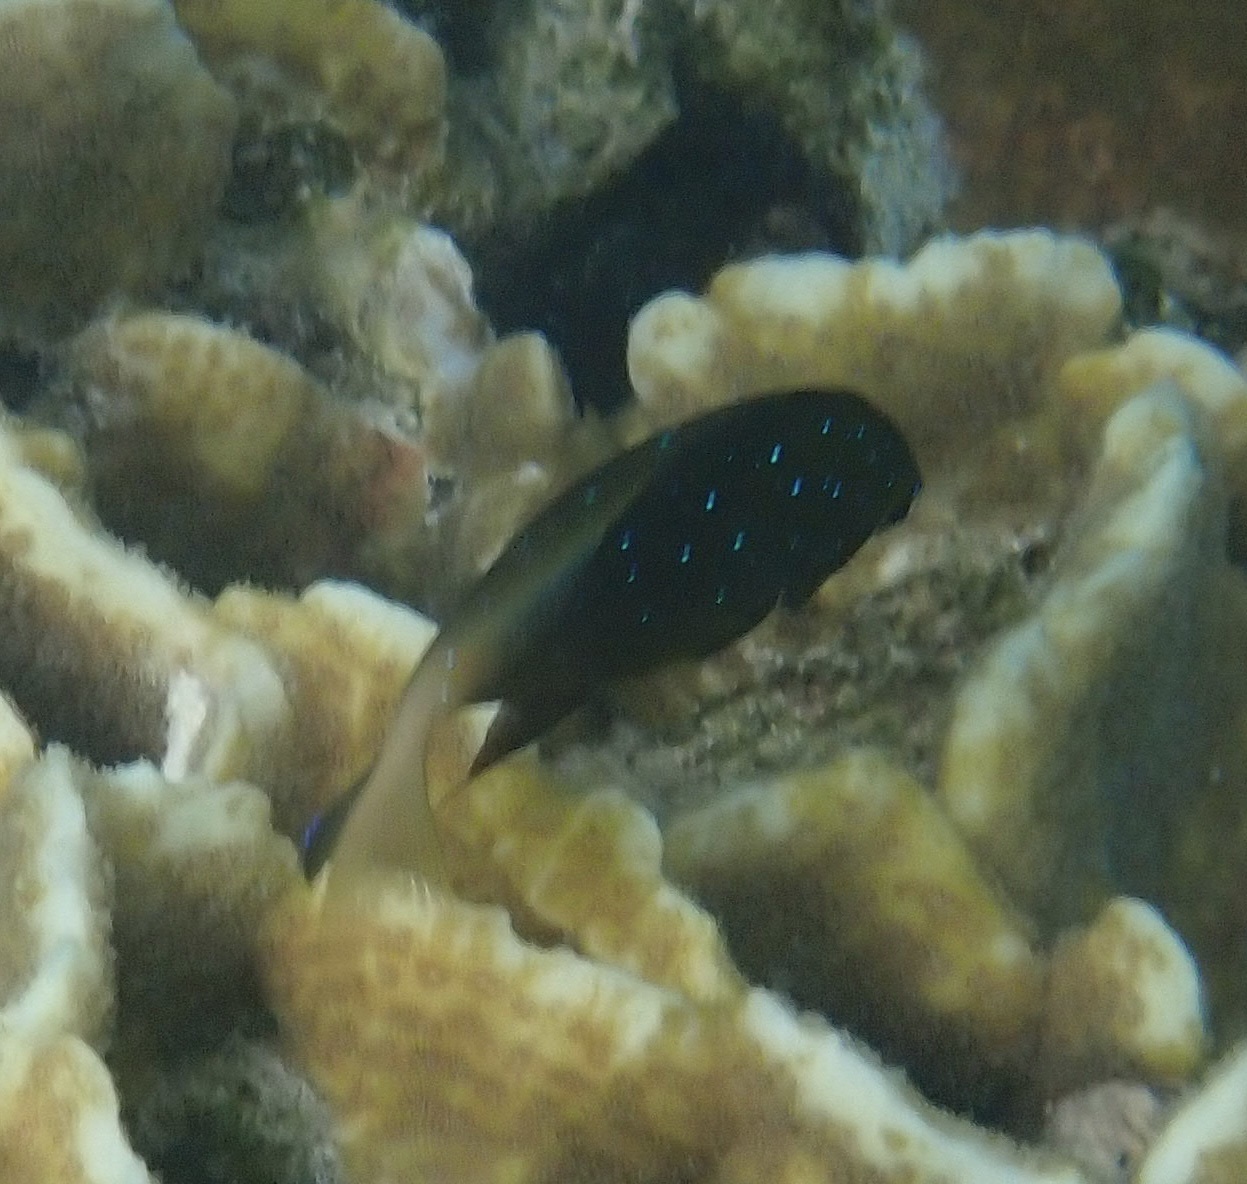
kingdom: Animalia
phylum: Chordata
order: Perciformes
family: Pomacentridae
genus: Plectroglyphidodon
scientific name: Plectroglyphidodon lacrymatus
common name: Jewel damsel
